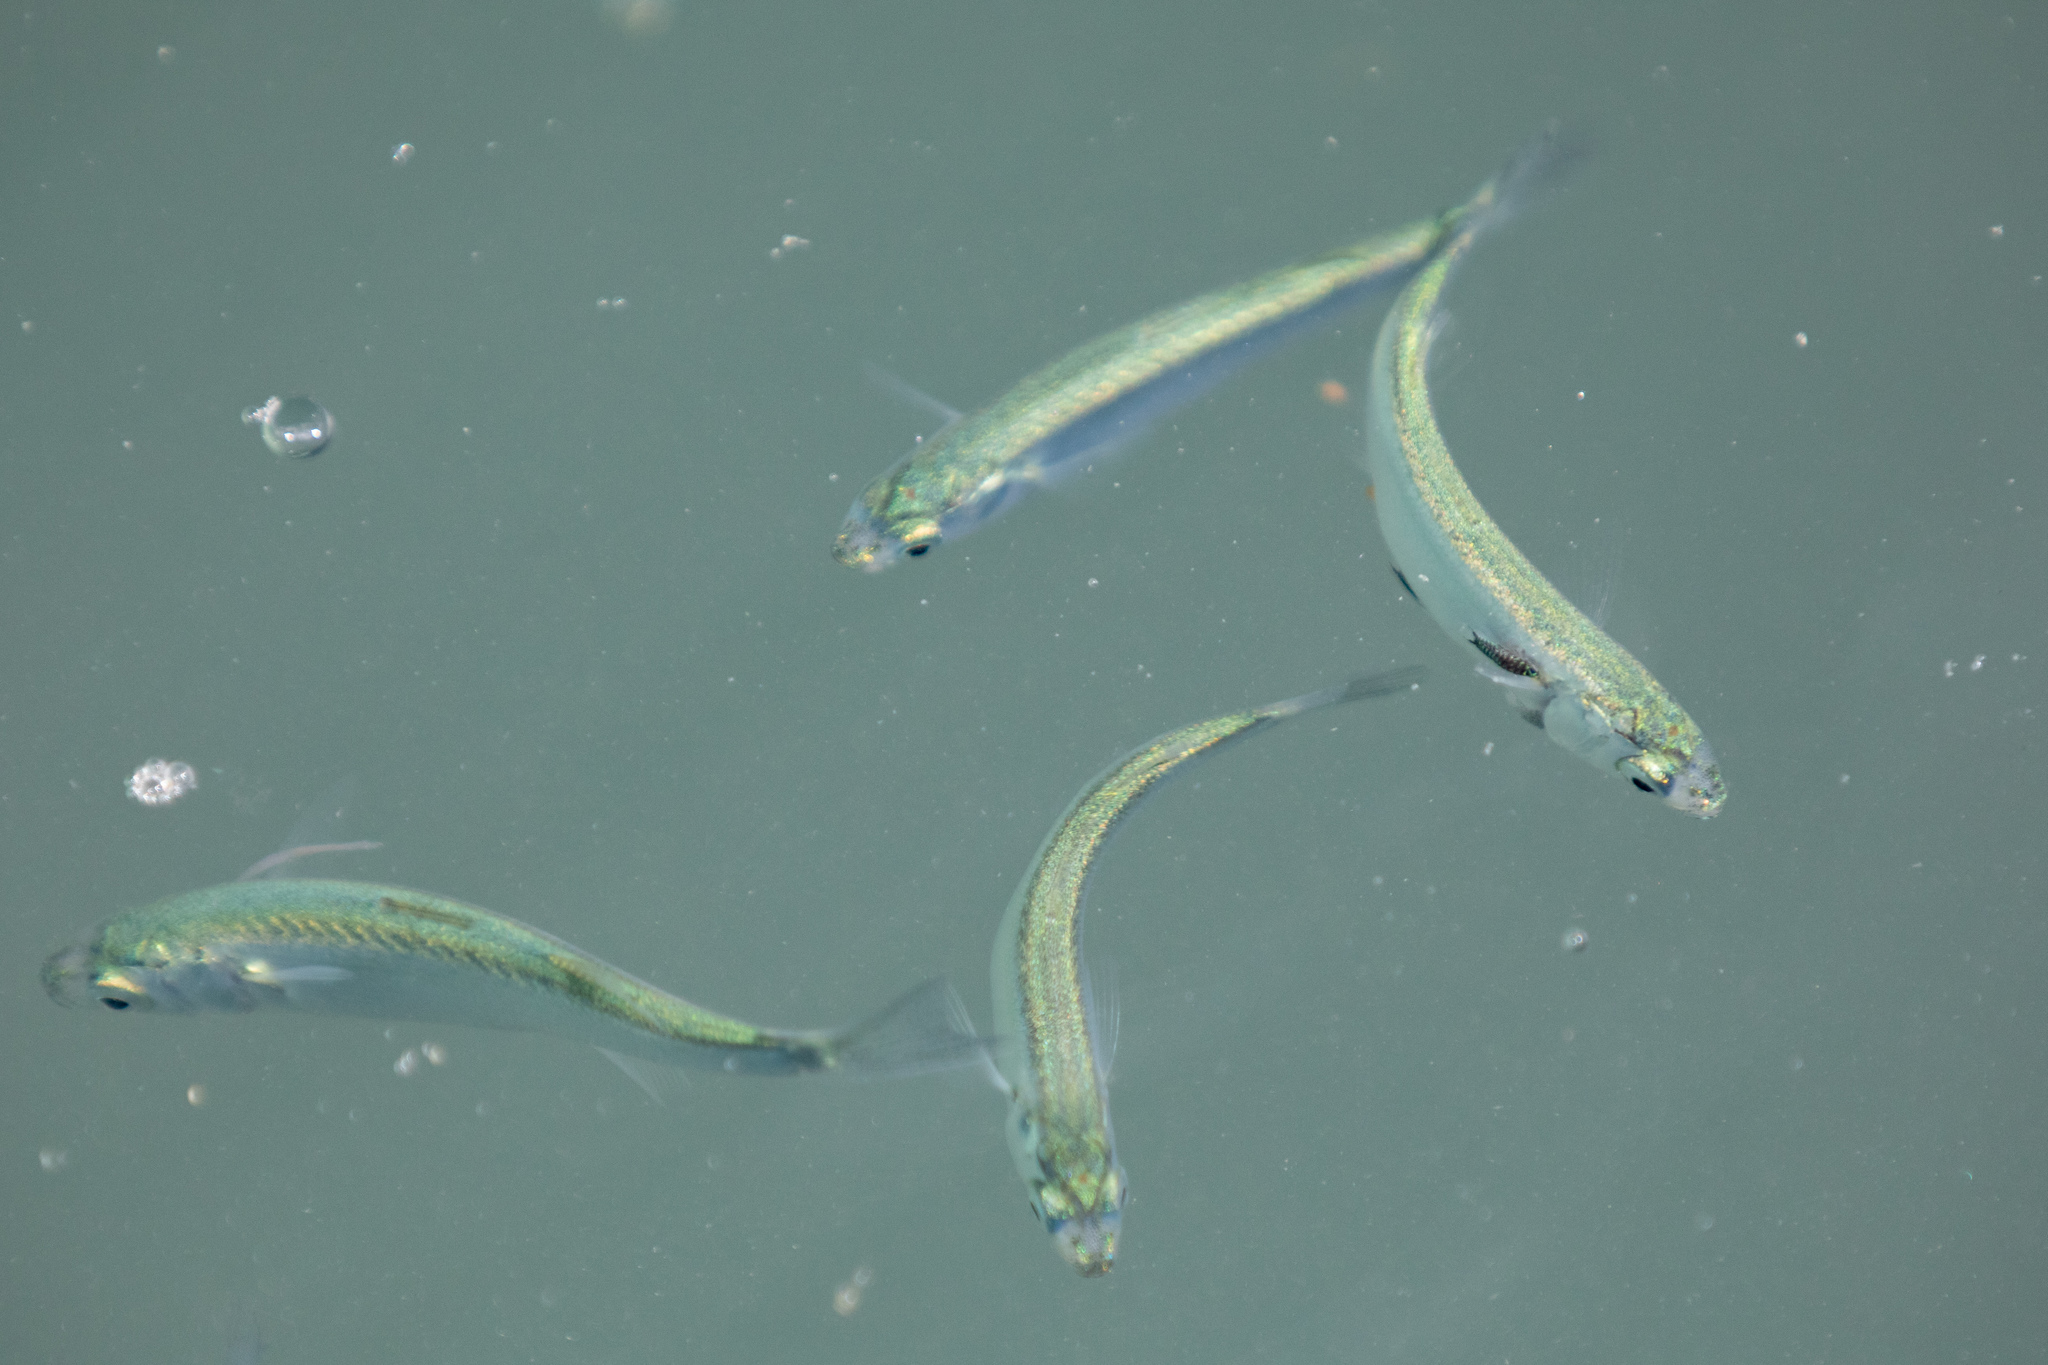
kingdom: Animalia
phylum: Chordata
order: Mugiliformes
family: Mugilidae
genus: Aldrichetta
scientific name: Aldrichetta forsteri
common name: Yellow-eye mullet
